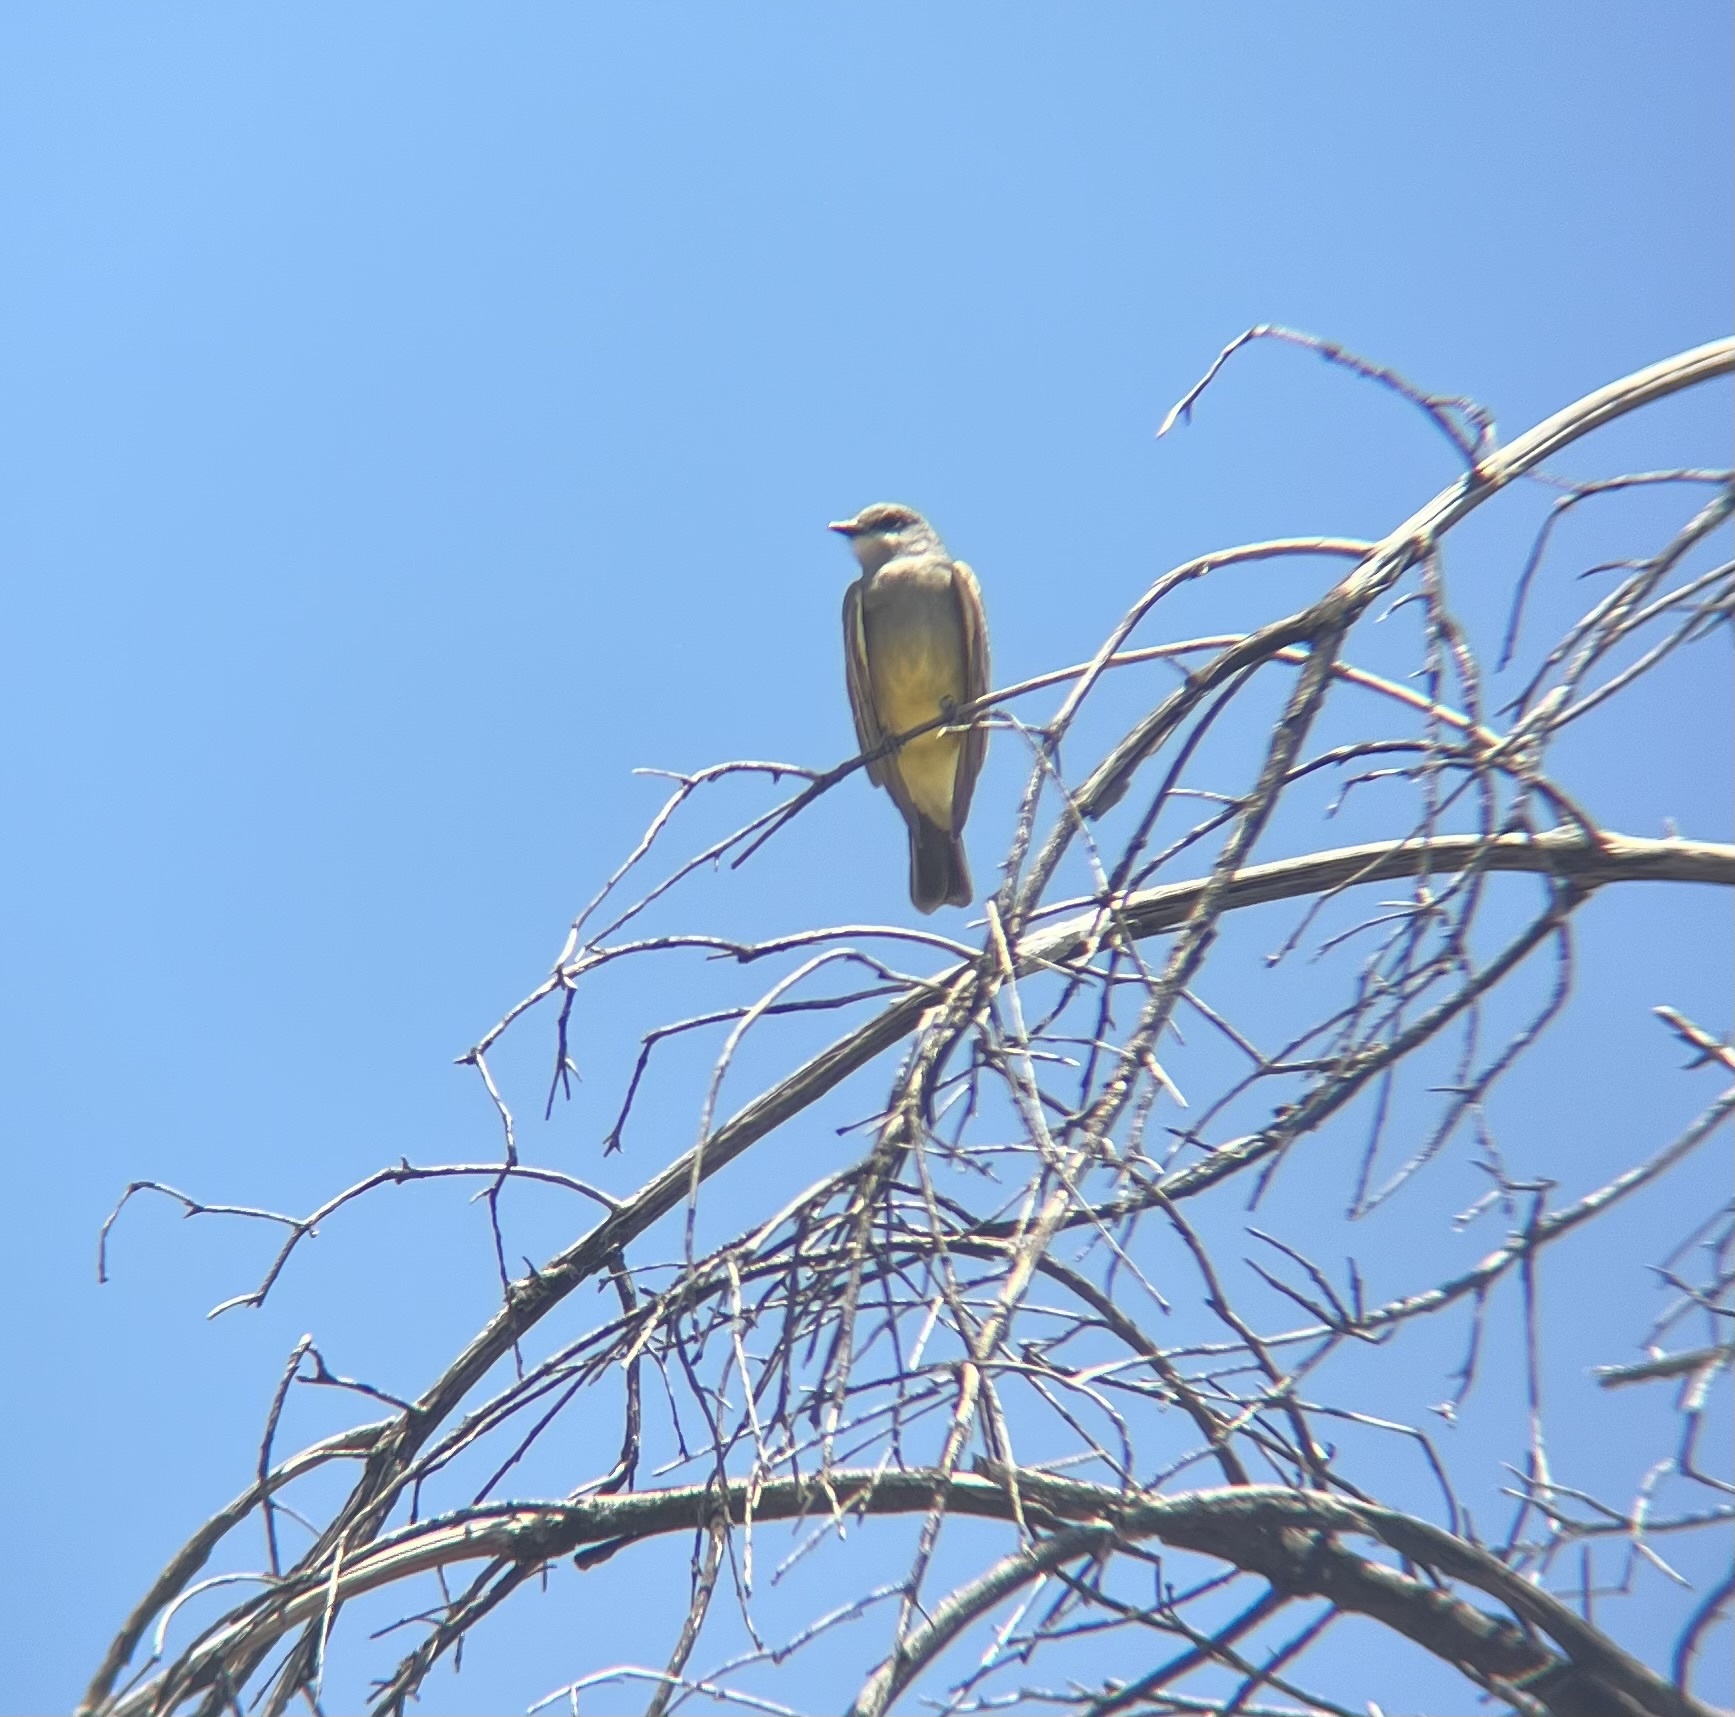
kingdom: Animalia
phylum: Chordata
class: Aves
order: Passeriformes
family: Tyrannidae
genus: Tyrannus
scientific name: Tyrannus vociferans
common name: Cassin's kingbird
